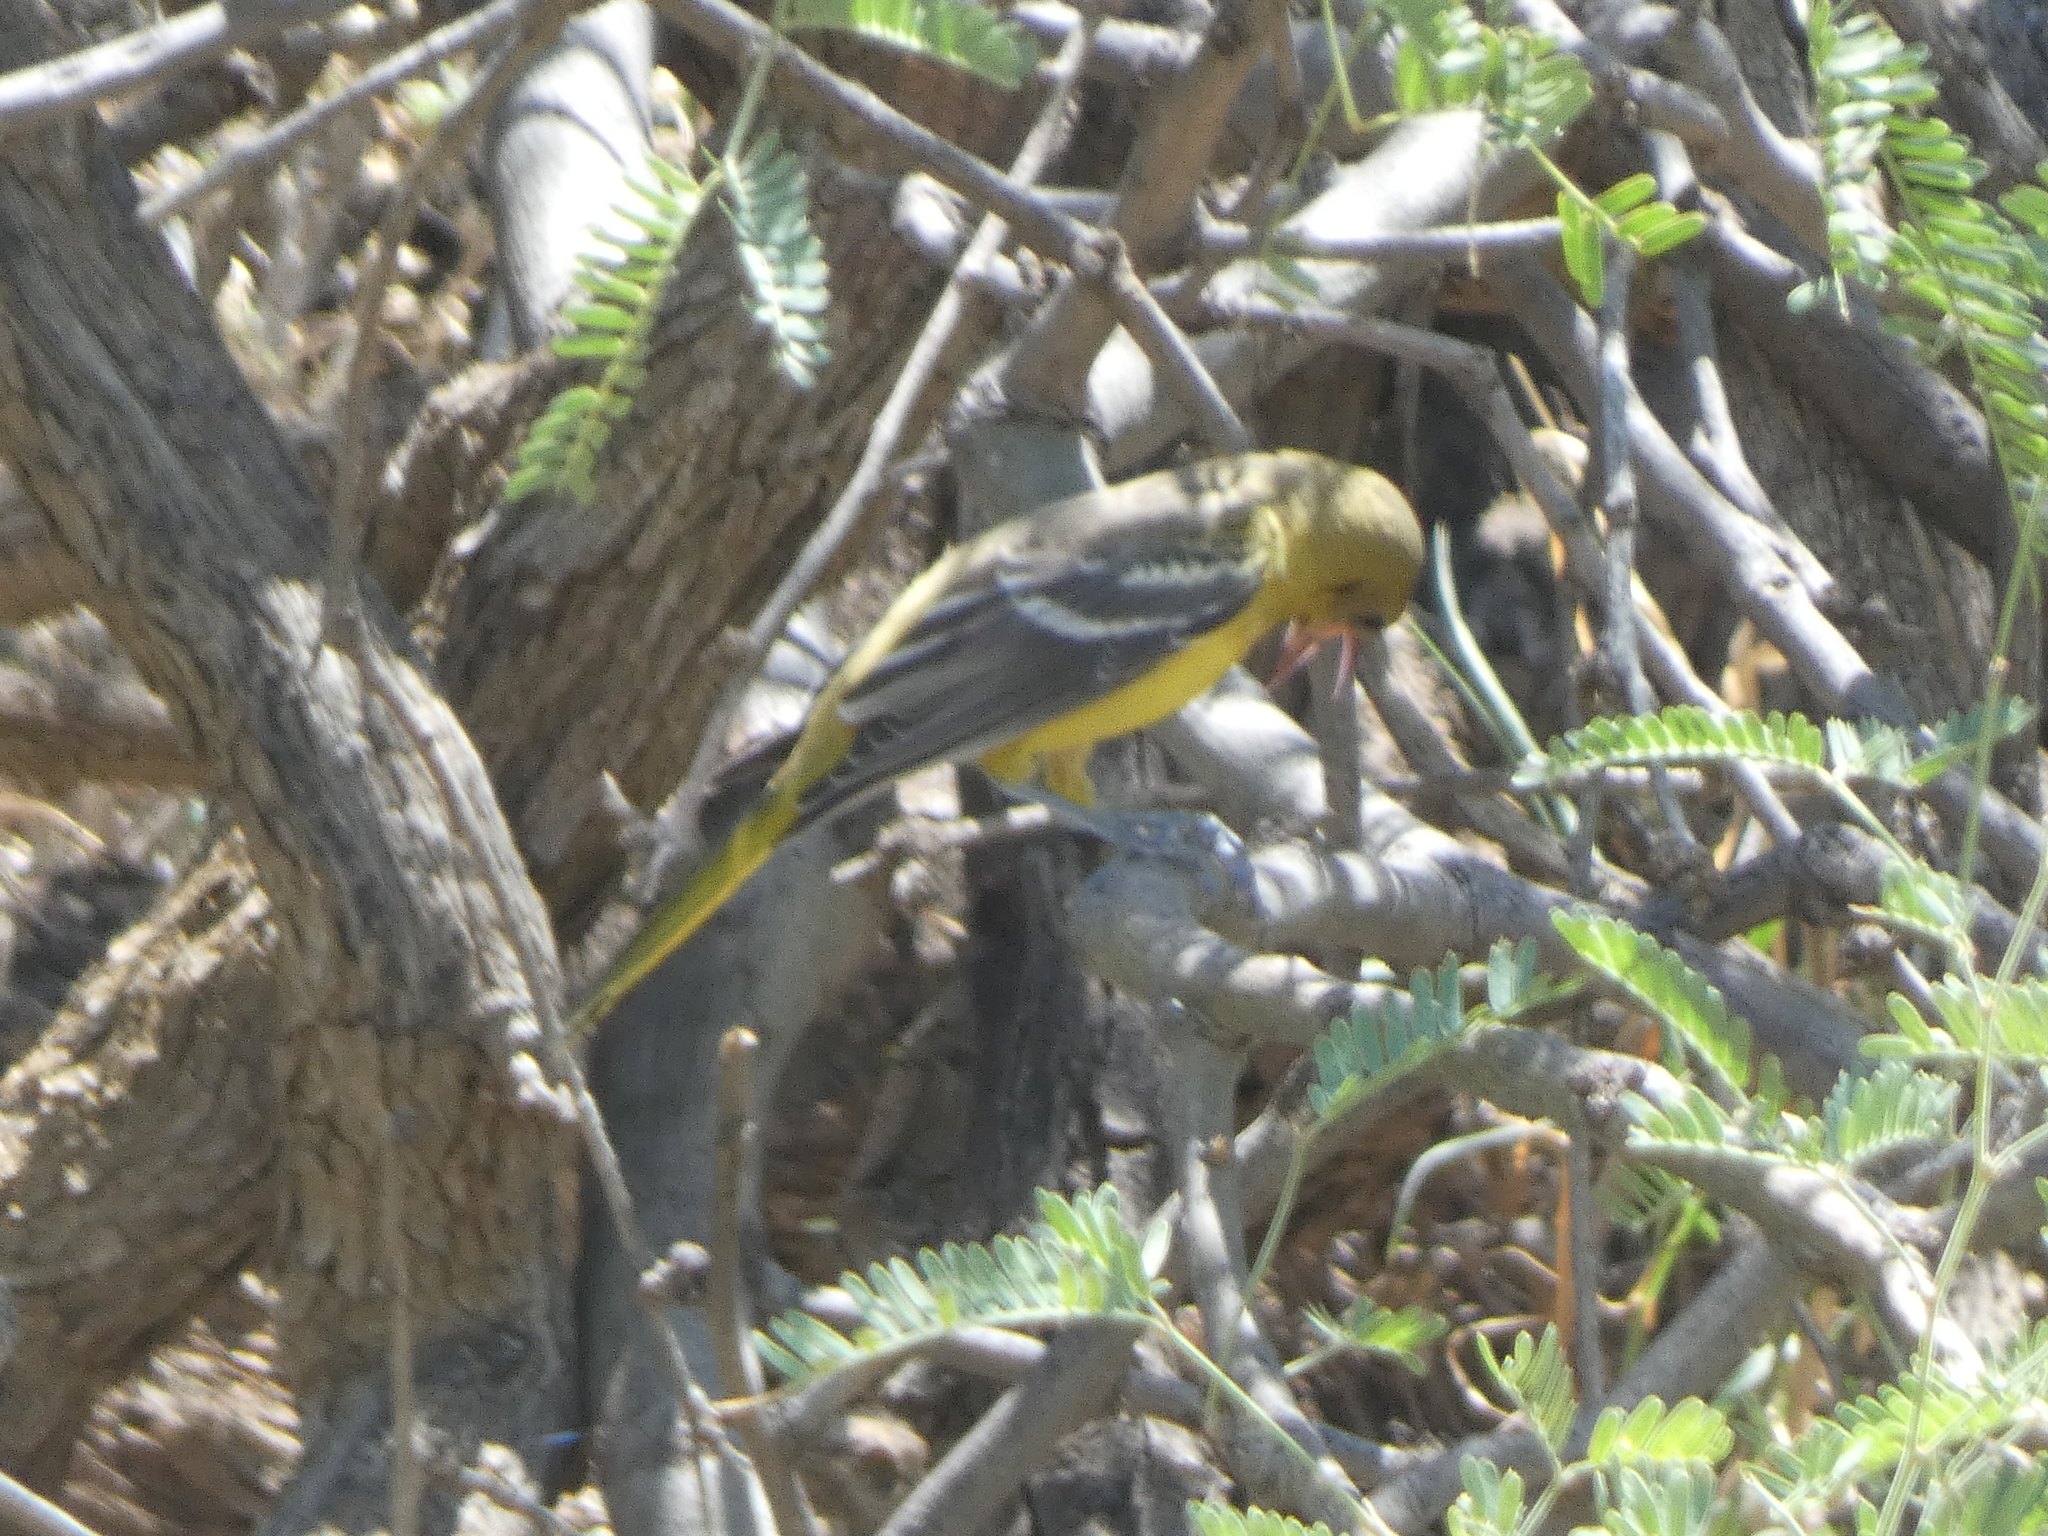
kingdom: Animalia
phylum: Chordata
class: Aves
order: Passeriformes
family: Icteridae
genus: Icterus
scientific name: Icterus cucullatus
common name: Hooded oriole
